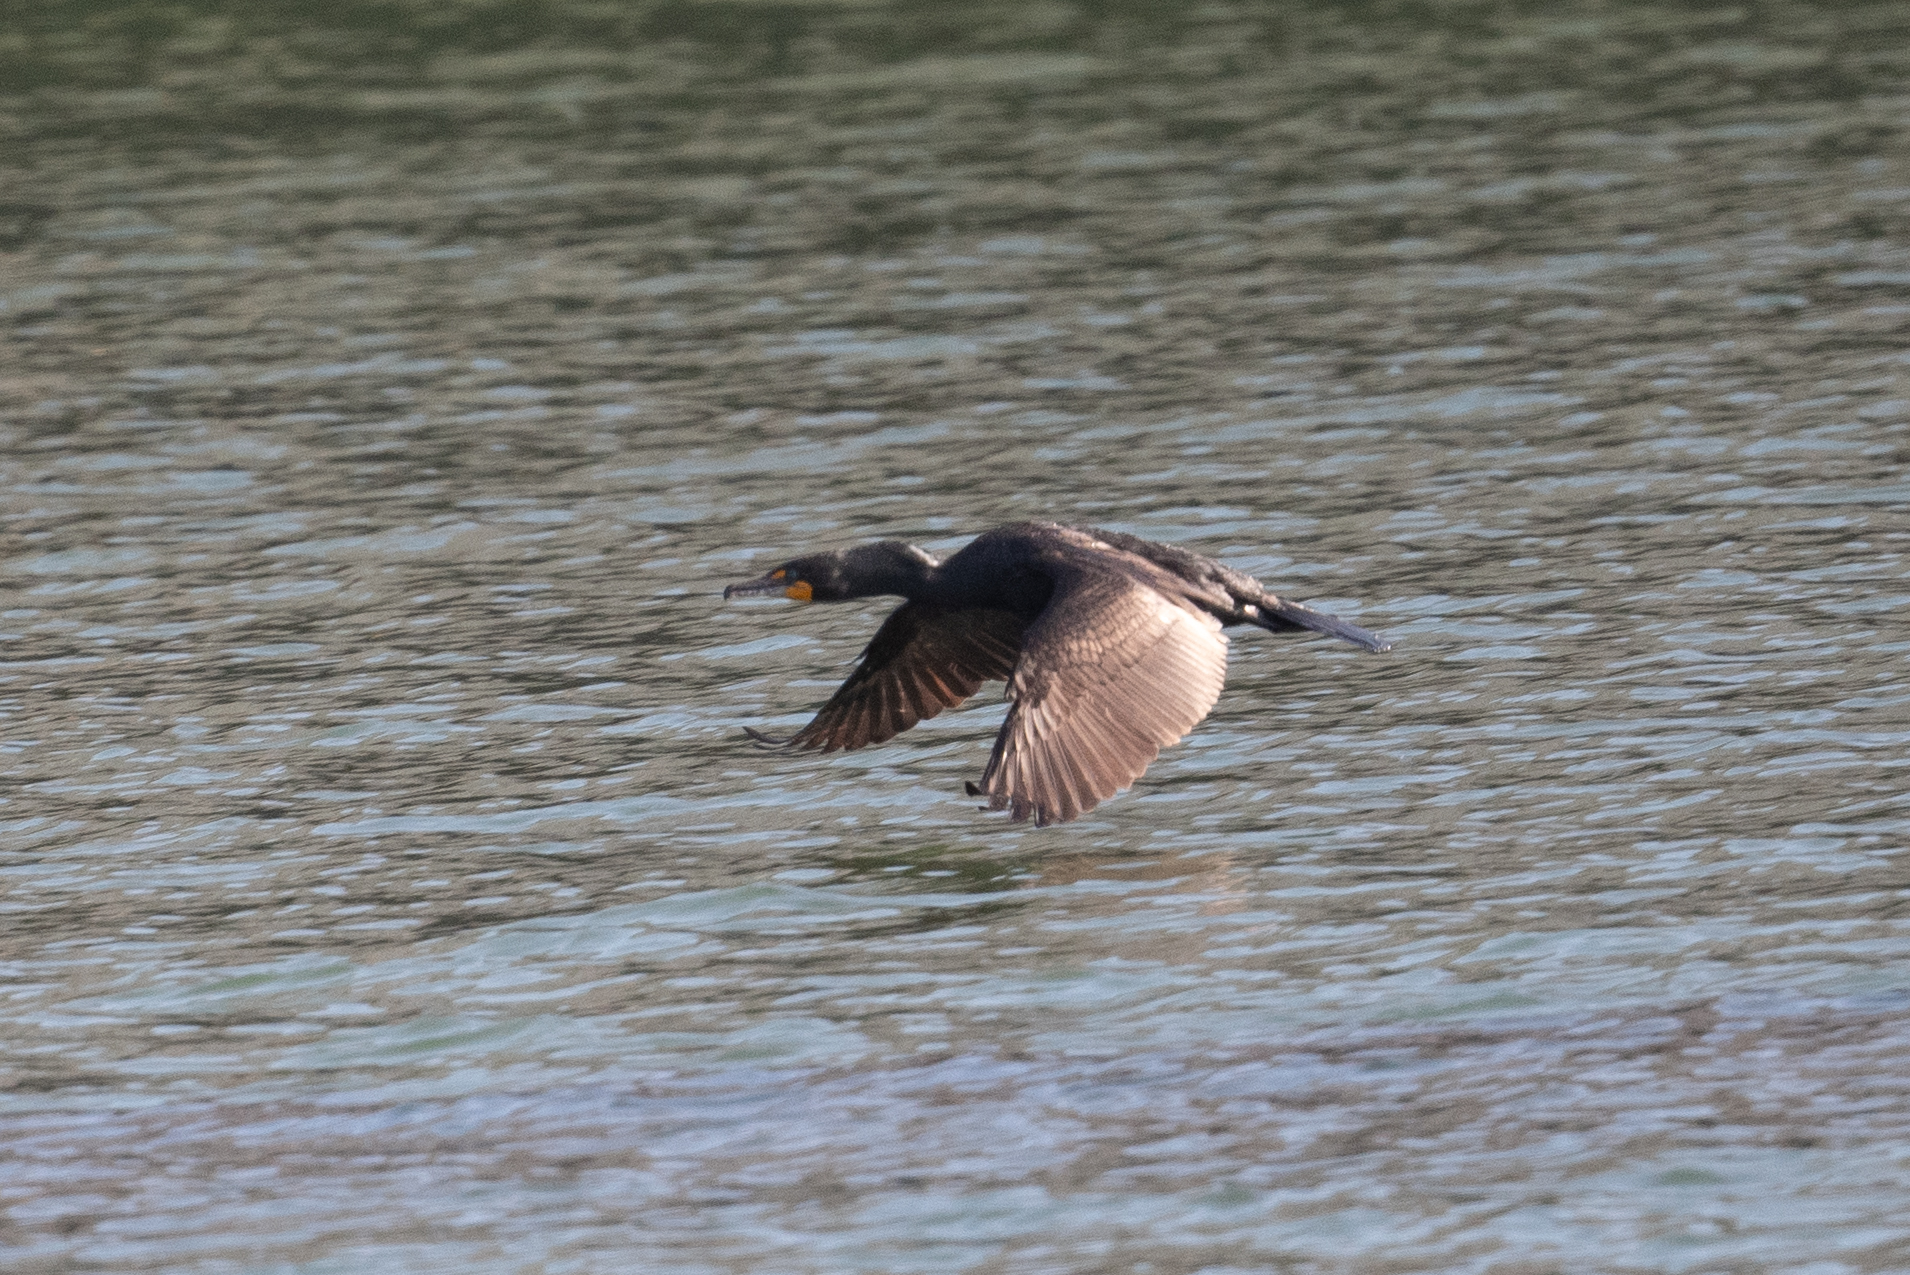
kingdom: Animalia
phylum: Chordata
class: Aves
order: Suliformes
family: Phalacrocoracidae
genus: Phalacrocorax
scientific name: Phalacrocorax auritus
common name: Double-crested cormorant
